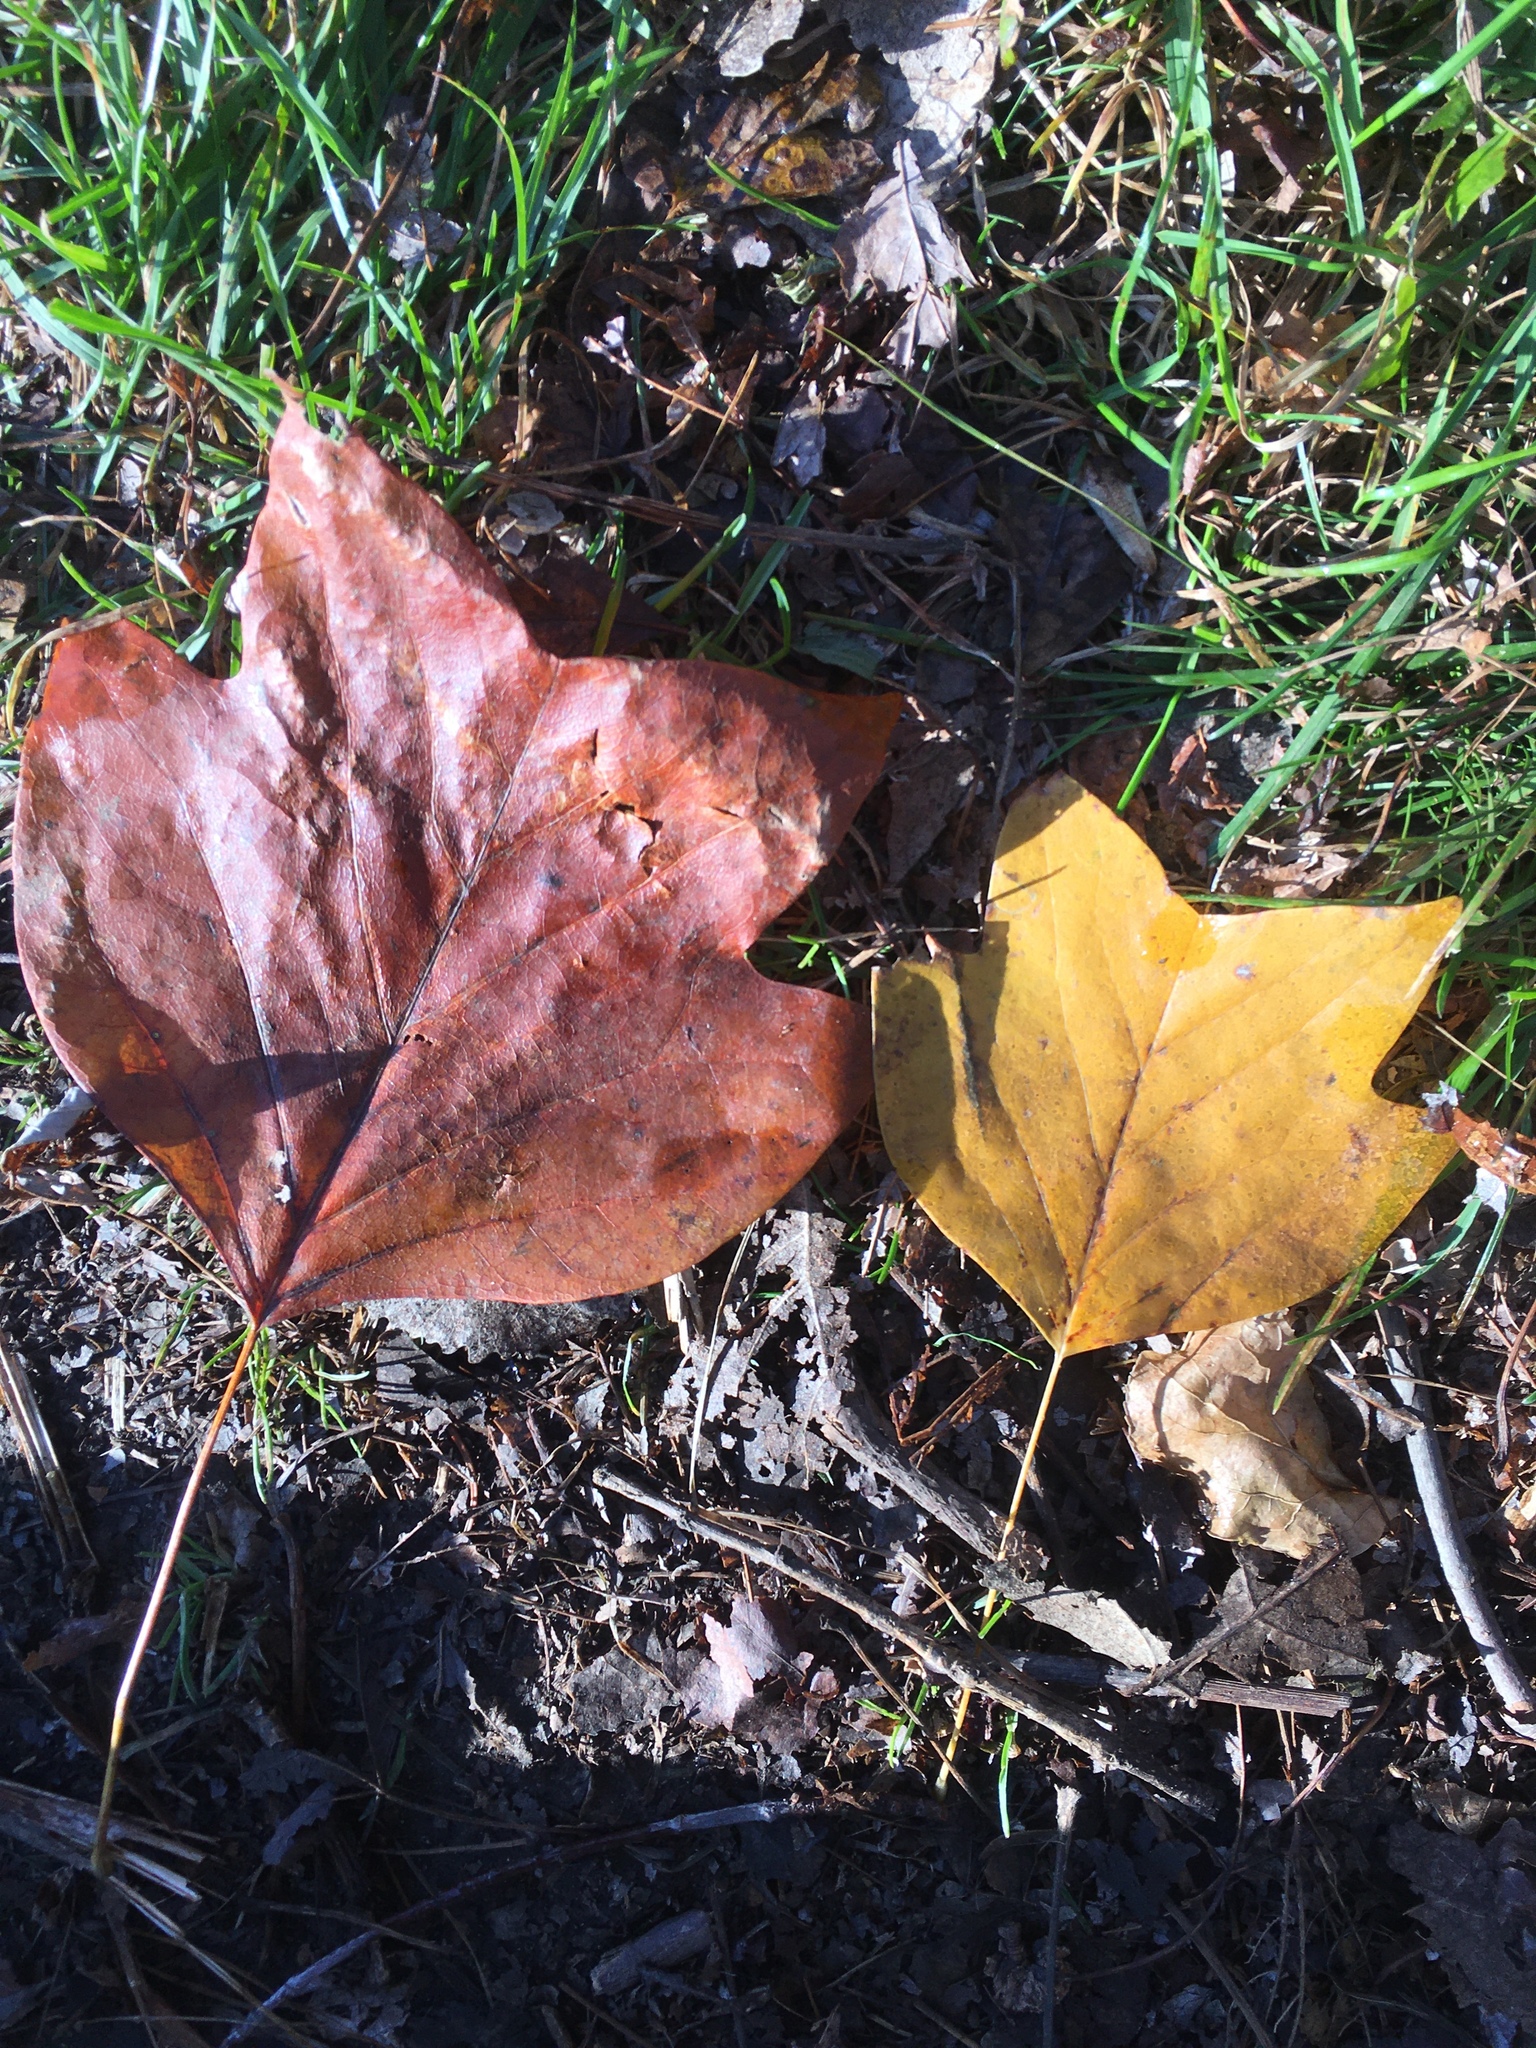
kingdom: Plantae
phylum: Tracheophyta
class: Magnoliopsida
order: Magnoliales
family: Magnoliaceae
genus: Liriodendron
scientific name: Liriodendron tulipifera
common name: Tulip tree
